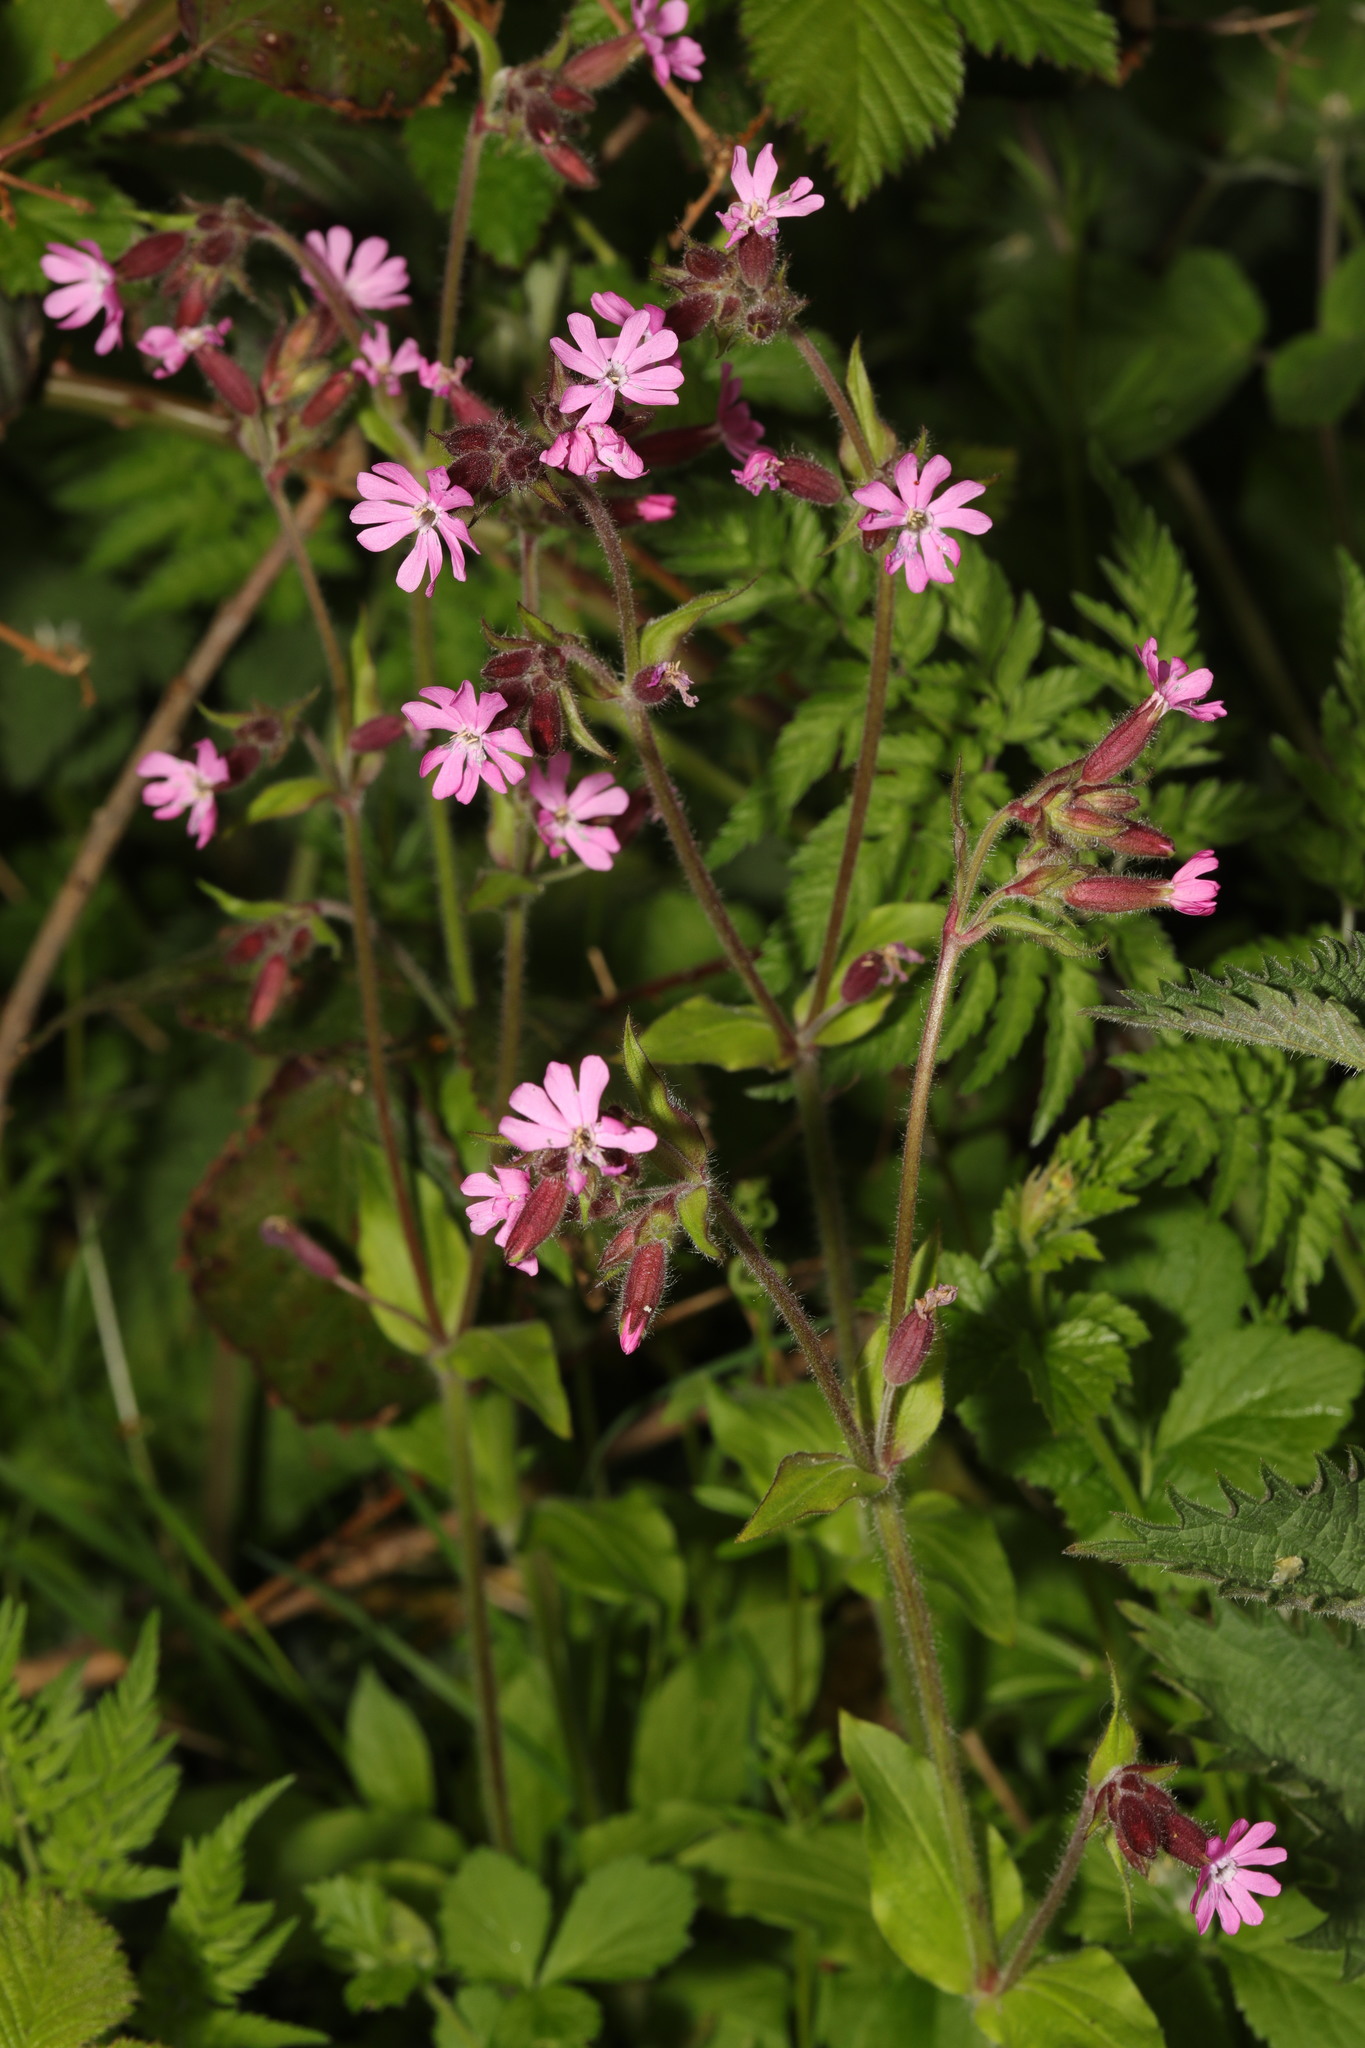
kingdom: Plantae
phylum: Tracheophyta
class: Magnoliopsida
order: Caryophyllales
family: Caryophyllaceae
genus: Silene
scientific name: Silene dioica
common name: Red campion
